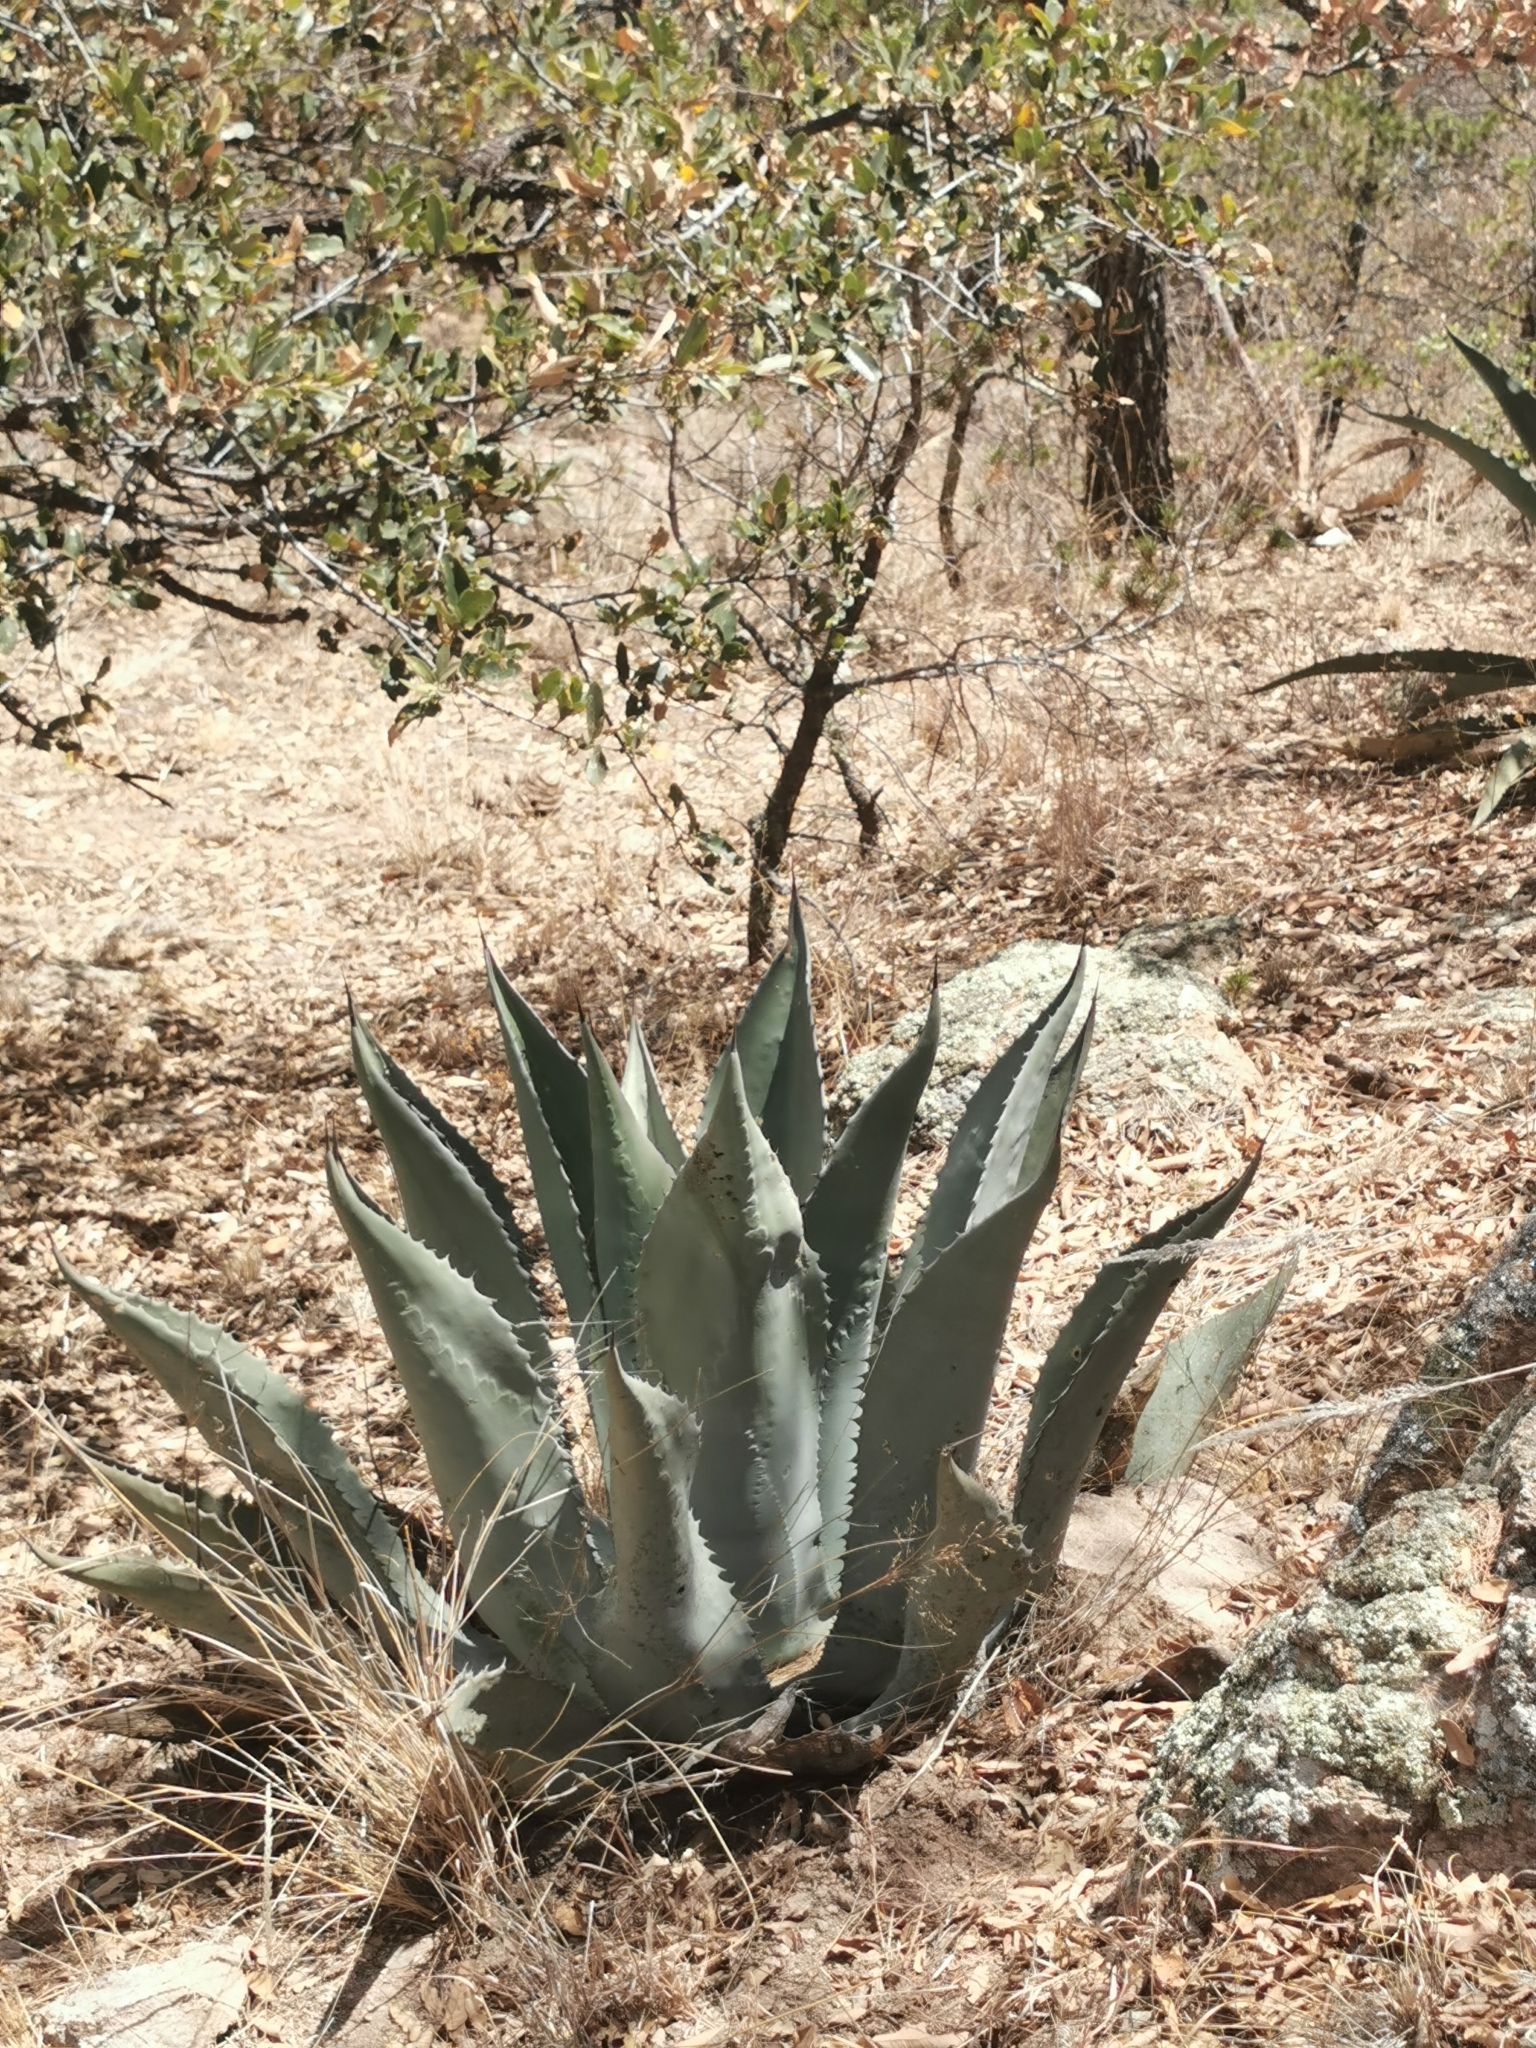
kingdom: Plantae
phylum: Tracheophyta
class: Liliopsida
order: Asparagales
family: Asparagaceae
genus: Agave
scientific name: Agave durangensis
